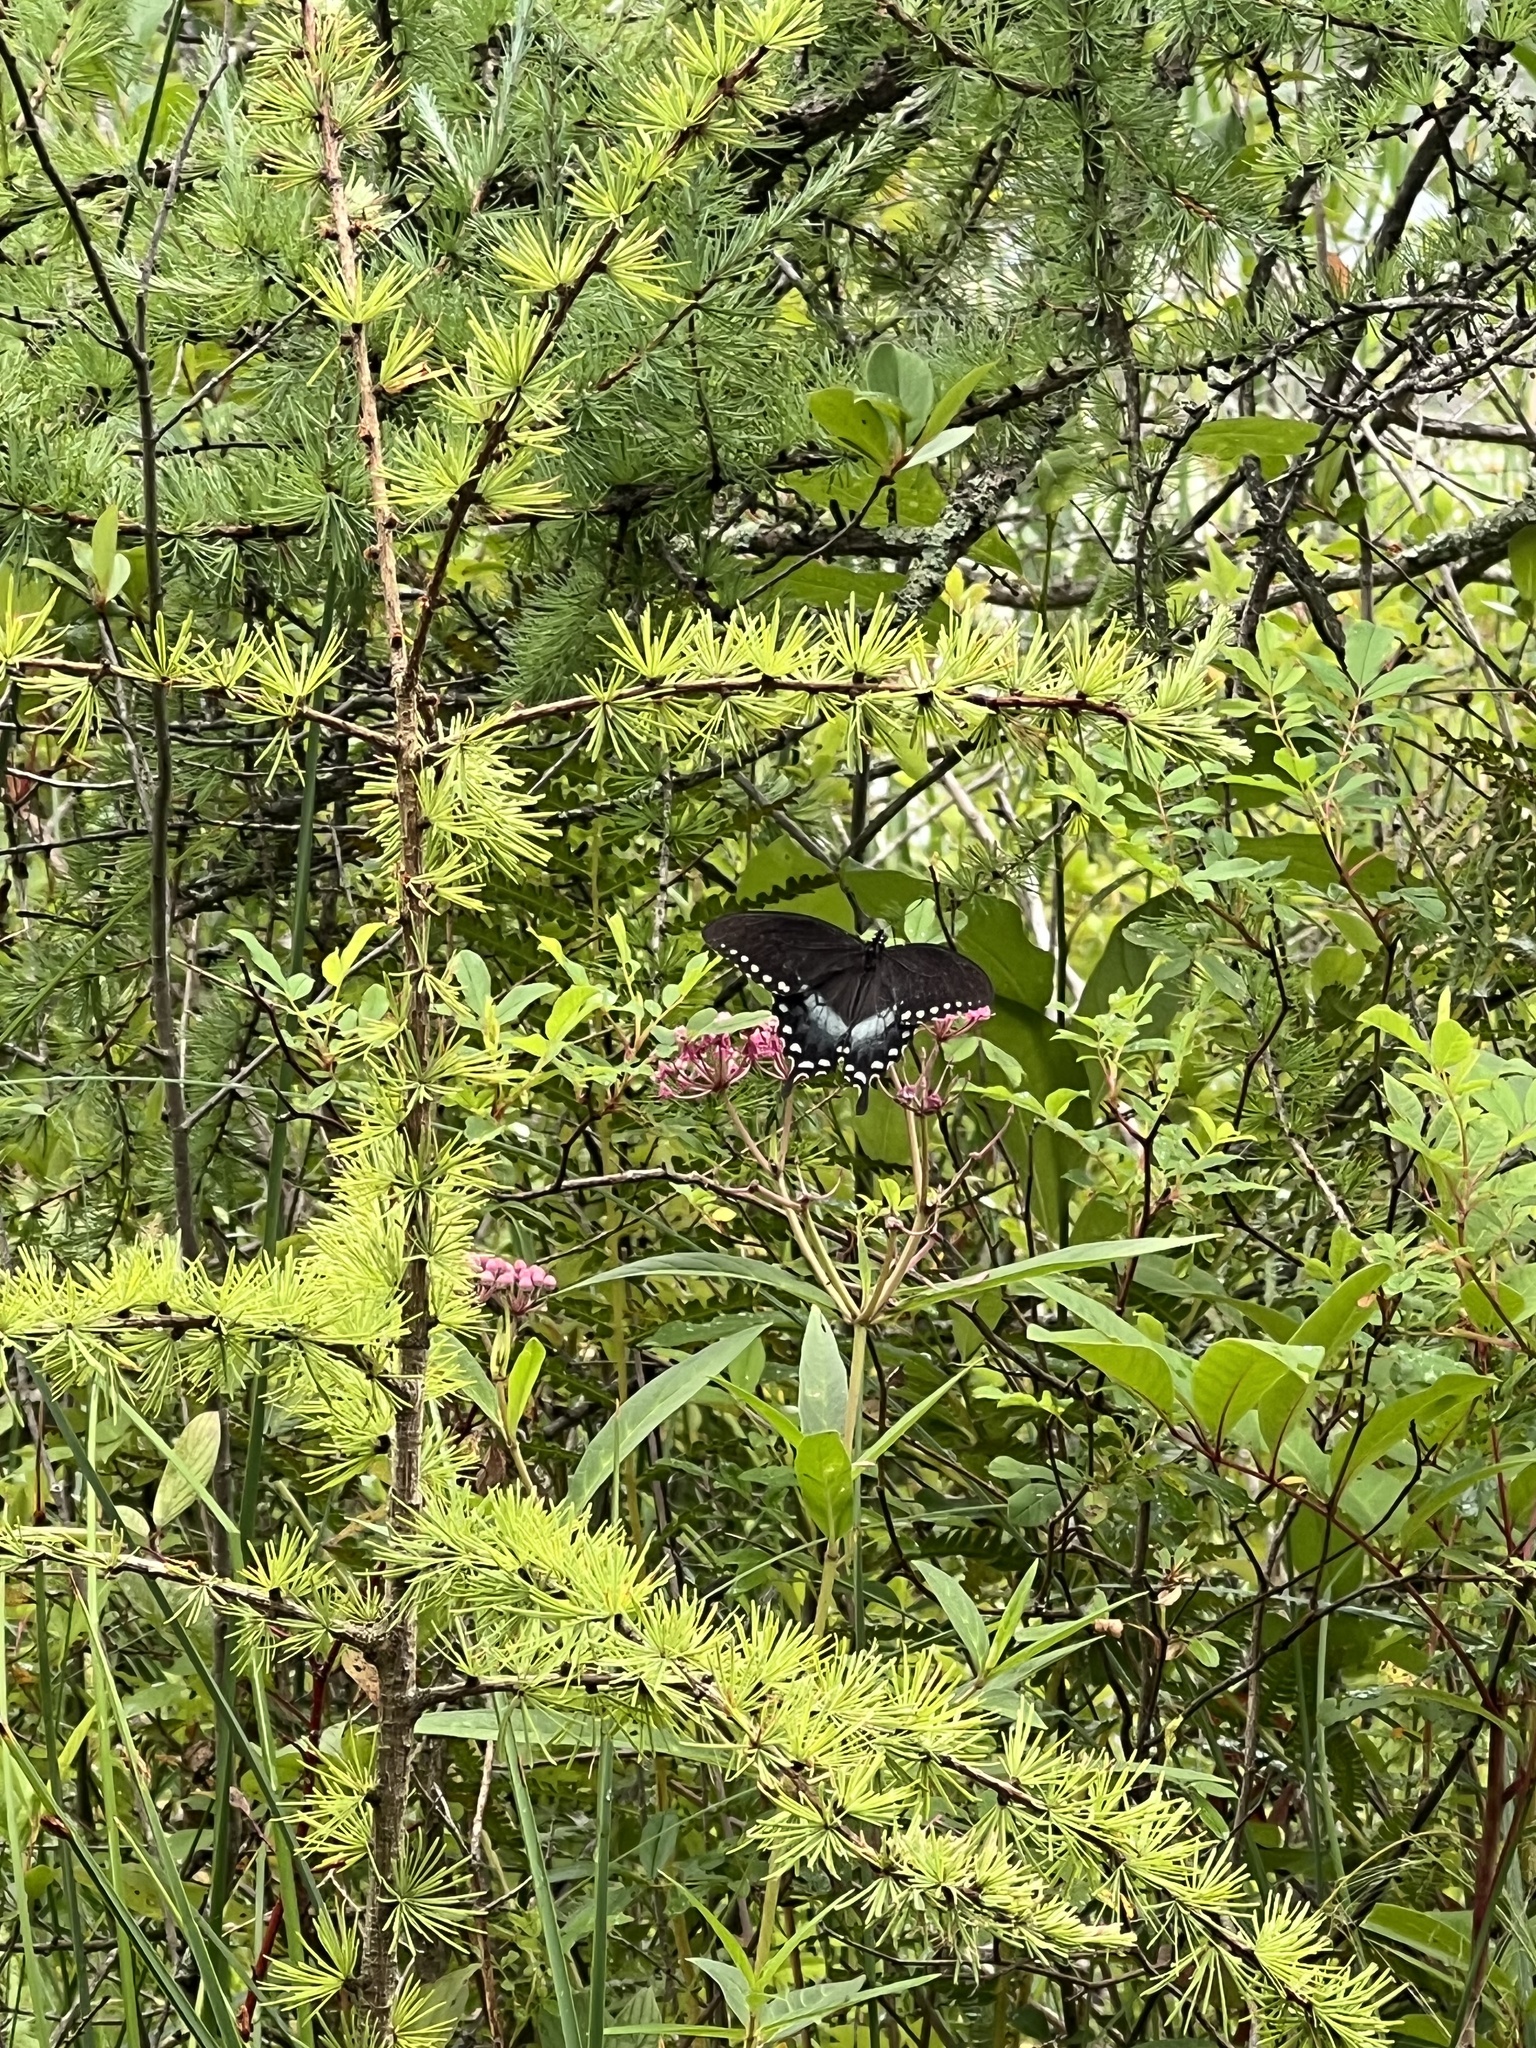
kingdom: Animalia
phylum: Arthropoda
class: Insecta
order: Lepidoptera
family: Papilionidae
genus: Papilio
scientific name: Papilio troilus
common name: Spicebush swallowtail
